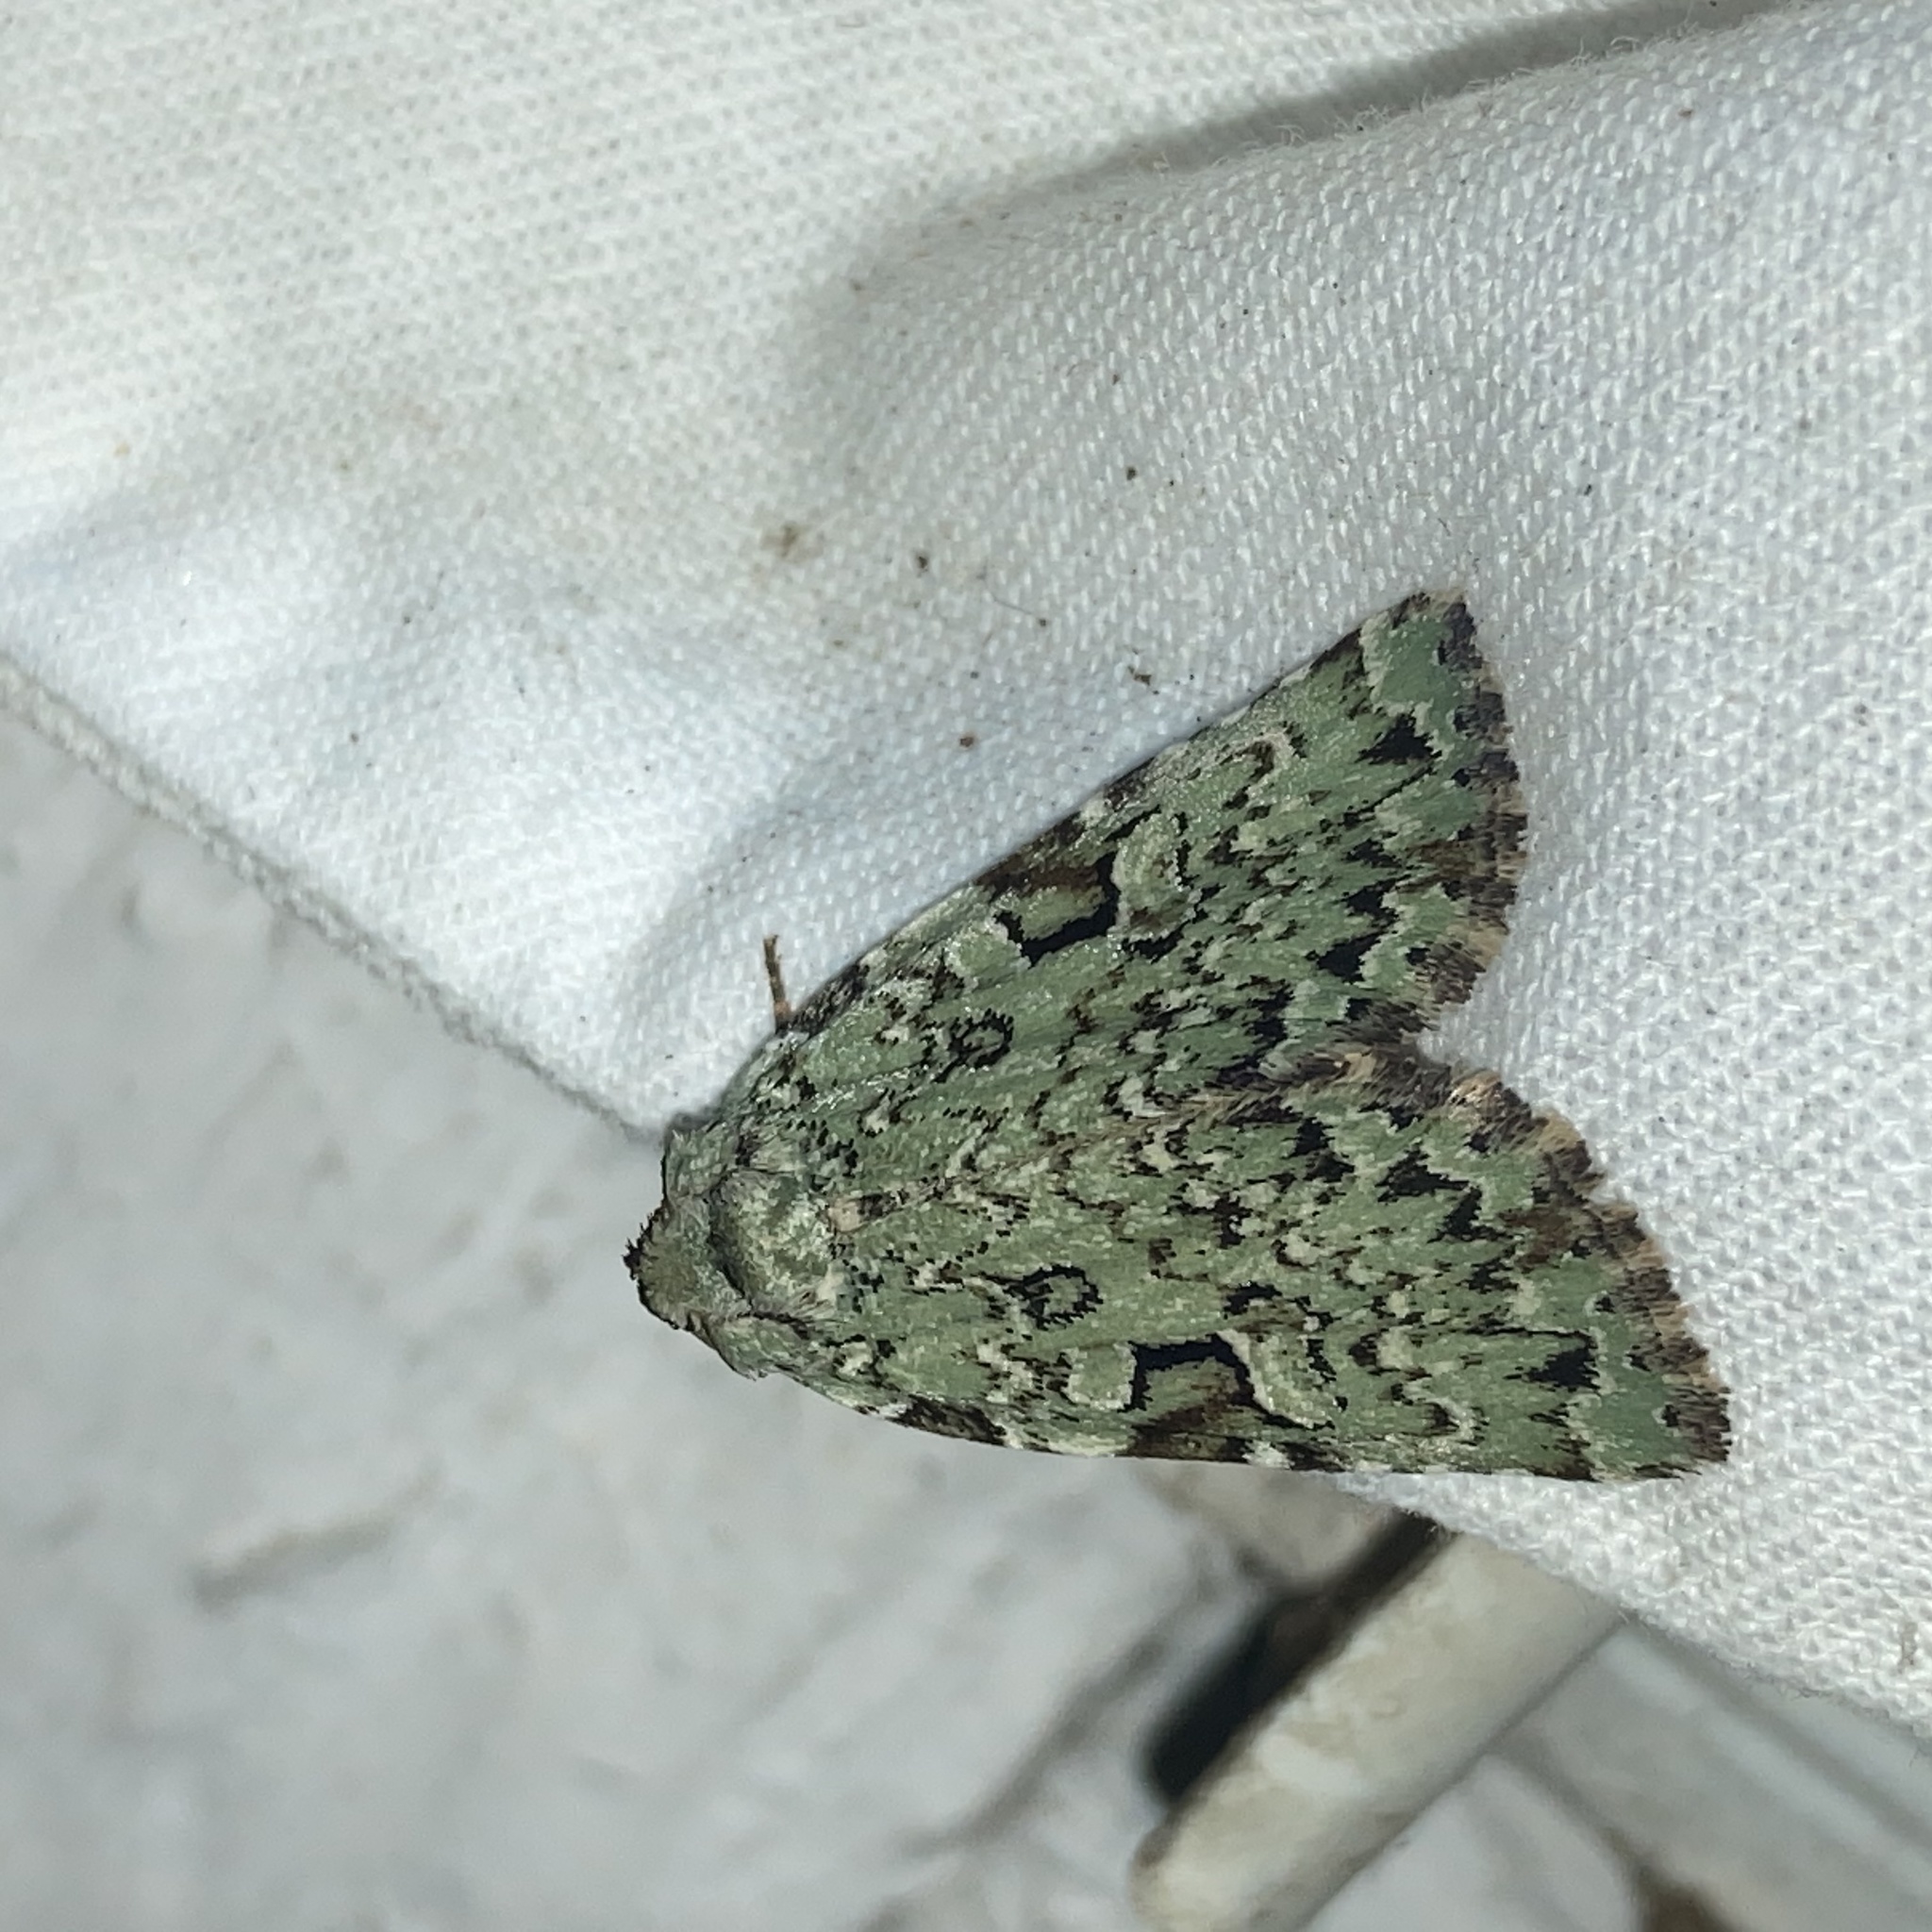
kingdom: Animalia
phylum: Arthropoda
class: Insecta
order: Lepidoptera
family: Noctuidae
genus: Leuconycta
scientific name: Leuconycta diphteroides
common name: Green leuconycta moth
